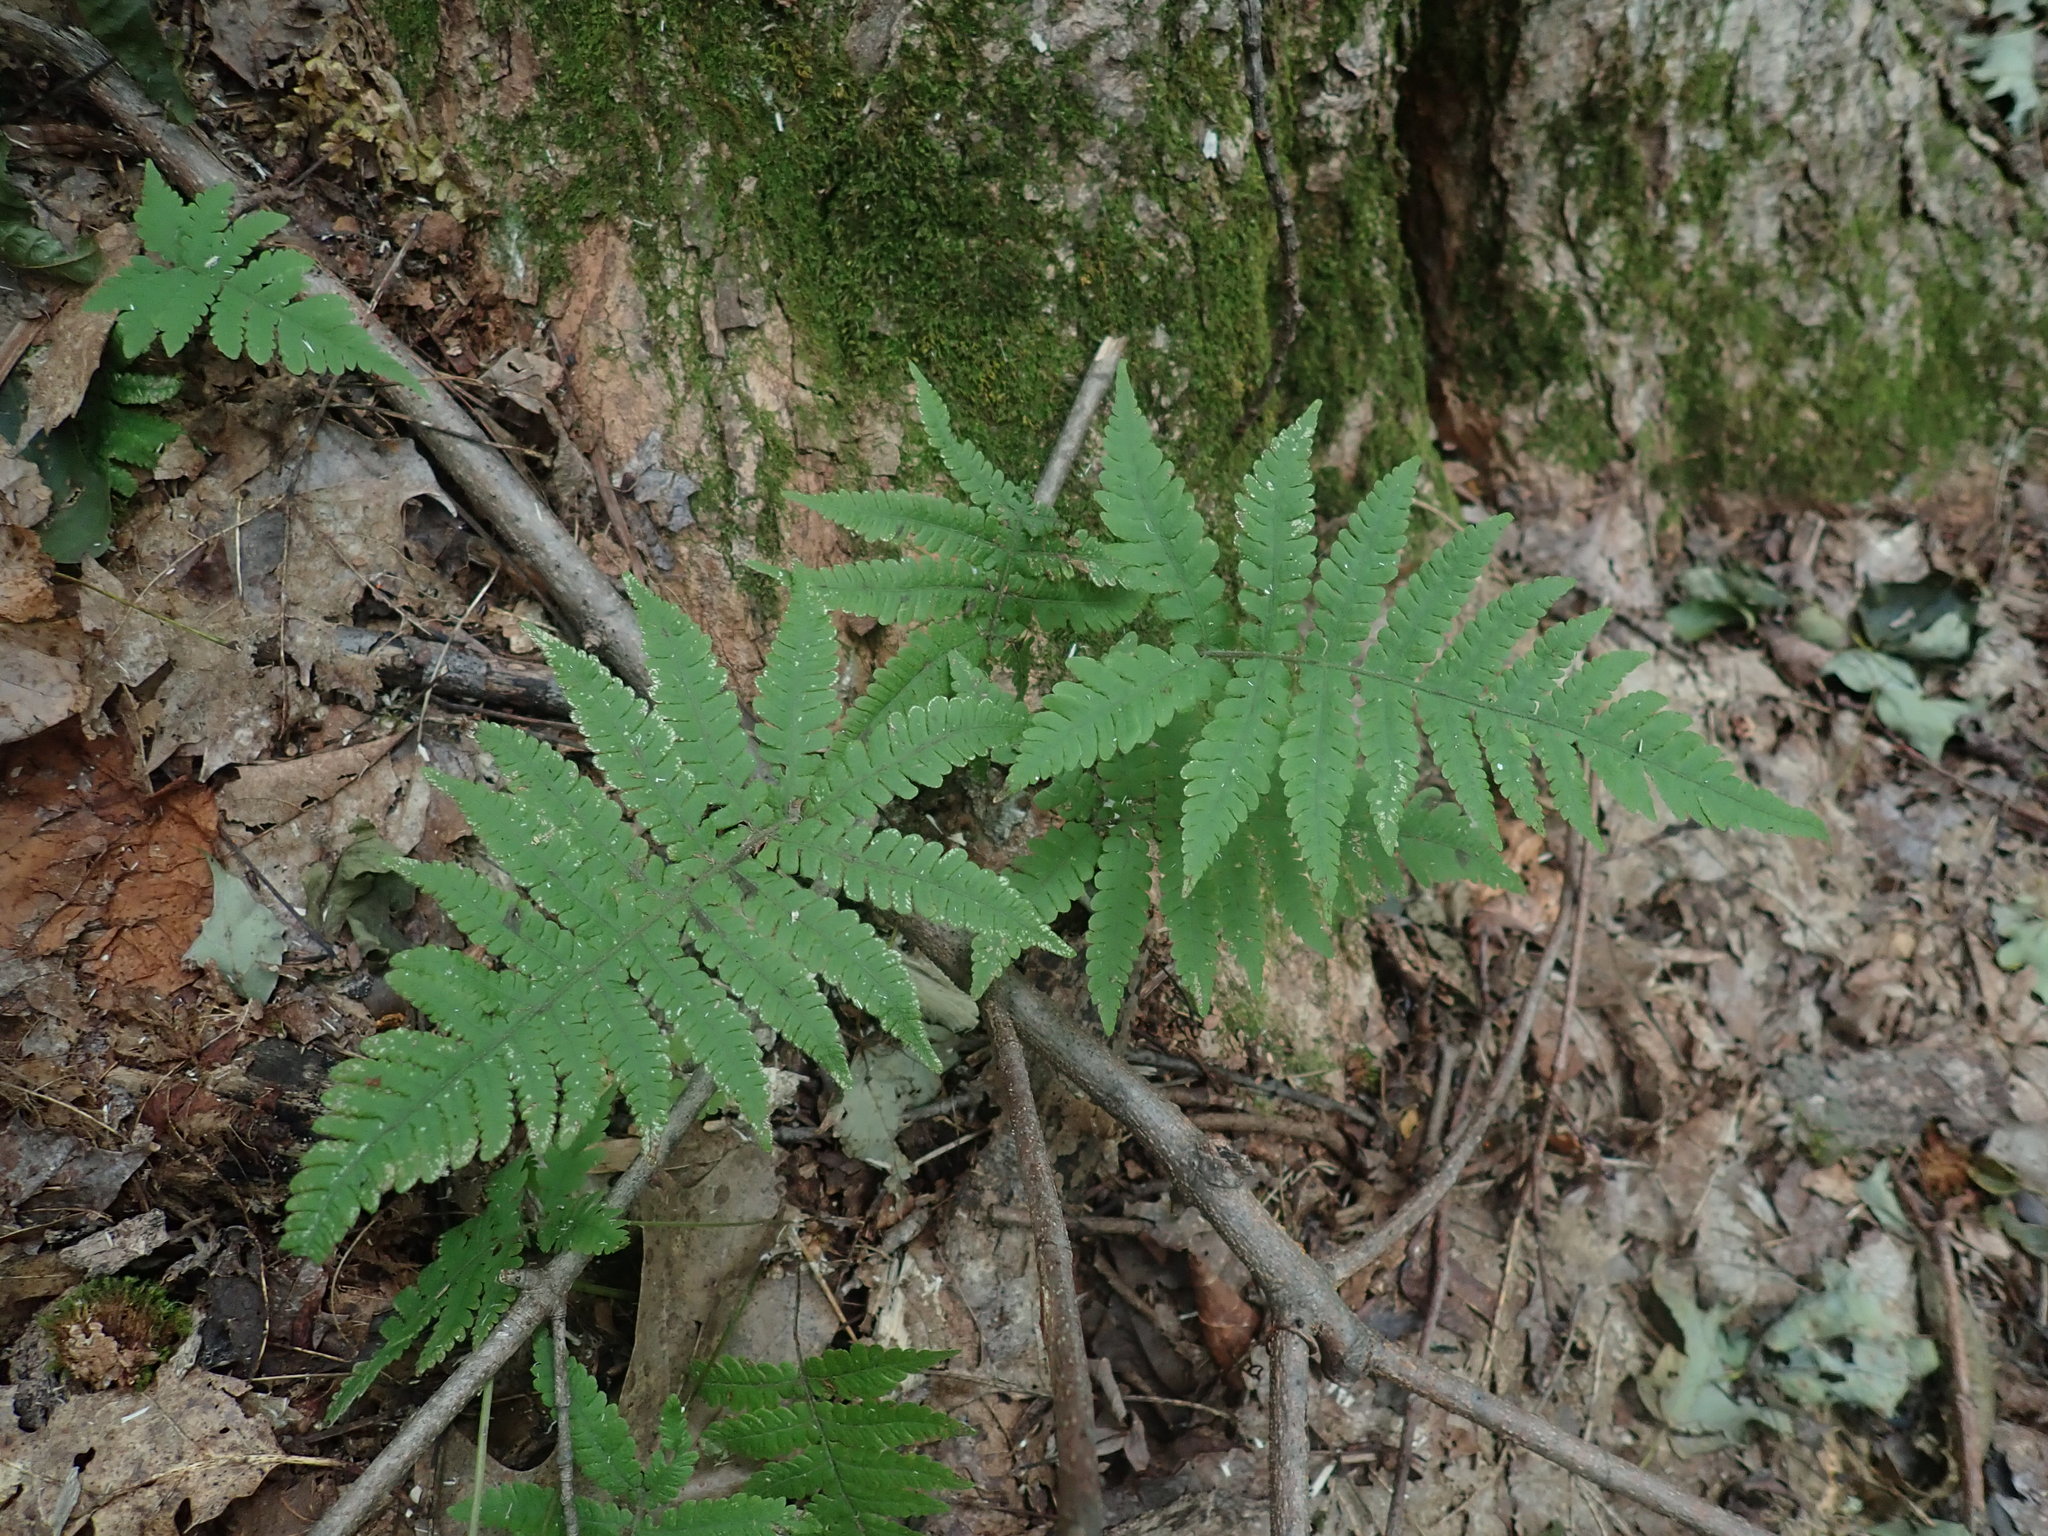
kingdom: Plantae
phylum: Tracheophyta
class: Polypodiopsida
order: Polypodiales
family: Thelypteridaceae
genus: Phegopteris
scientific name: Phegopteris connectilis
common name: Beech fern
